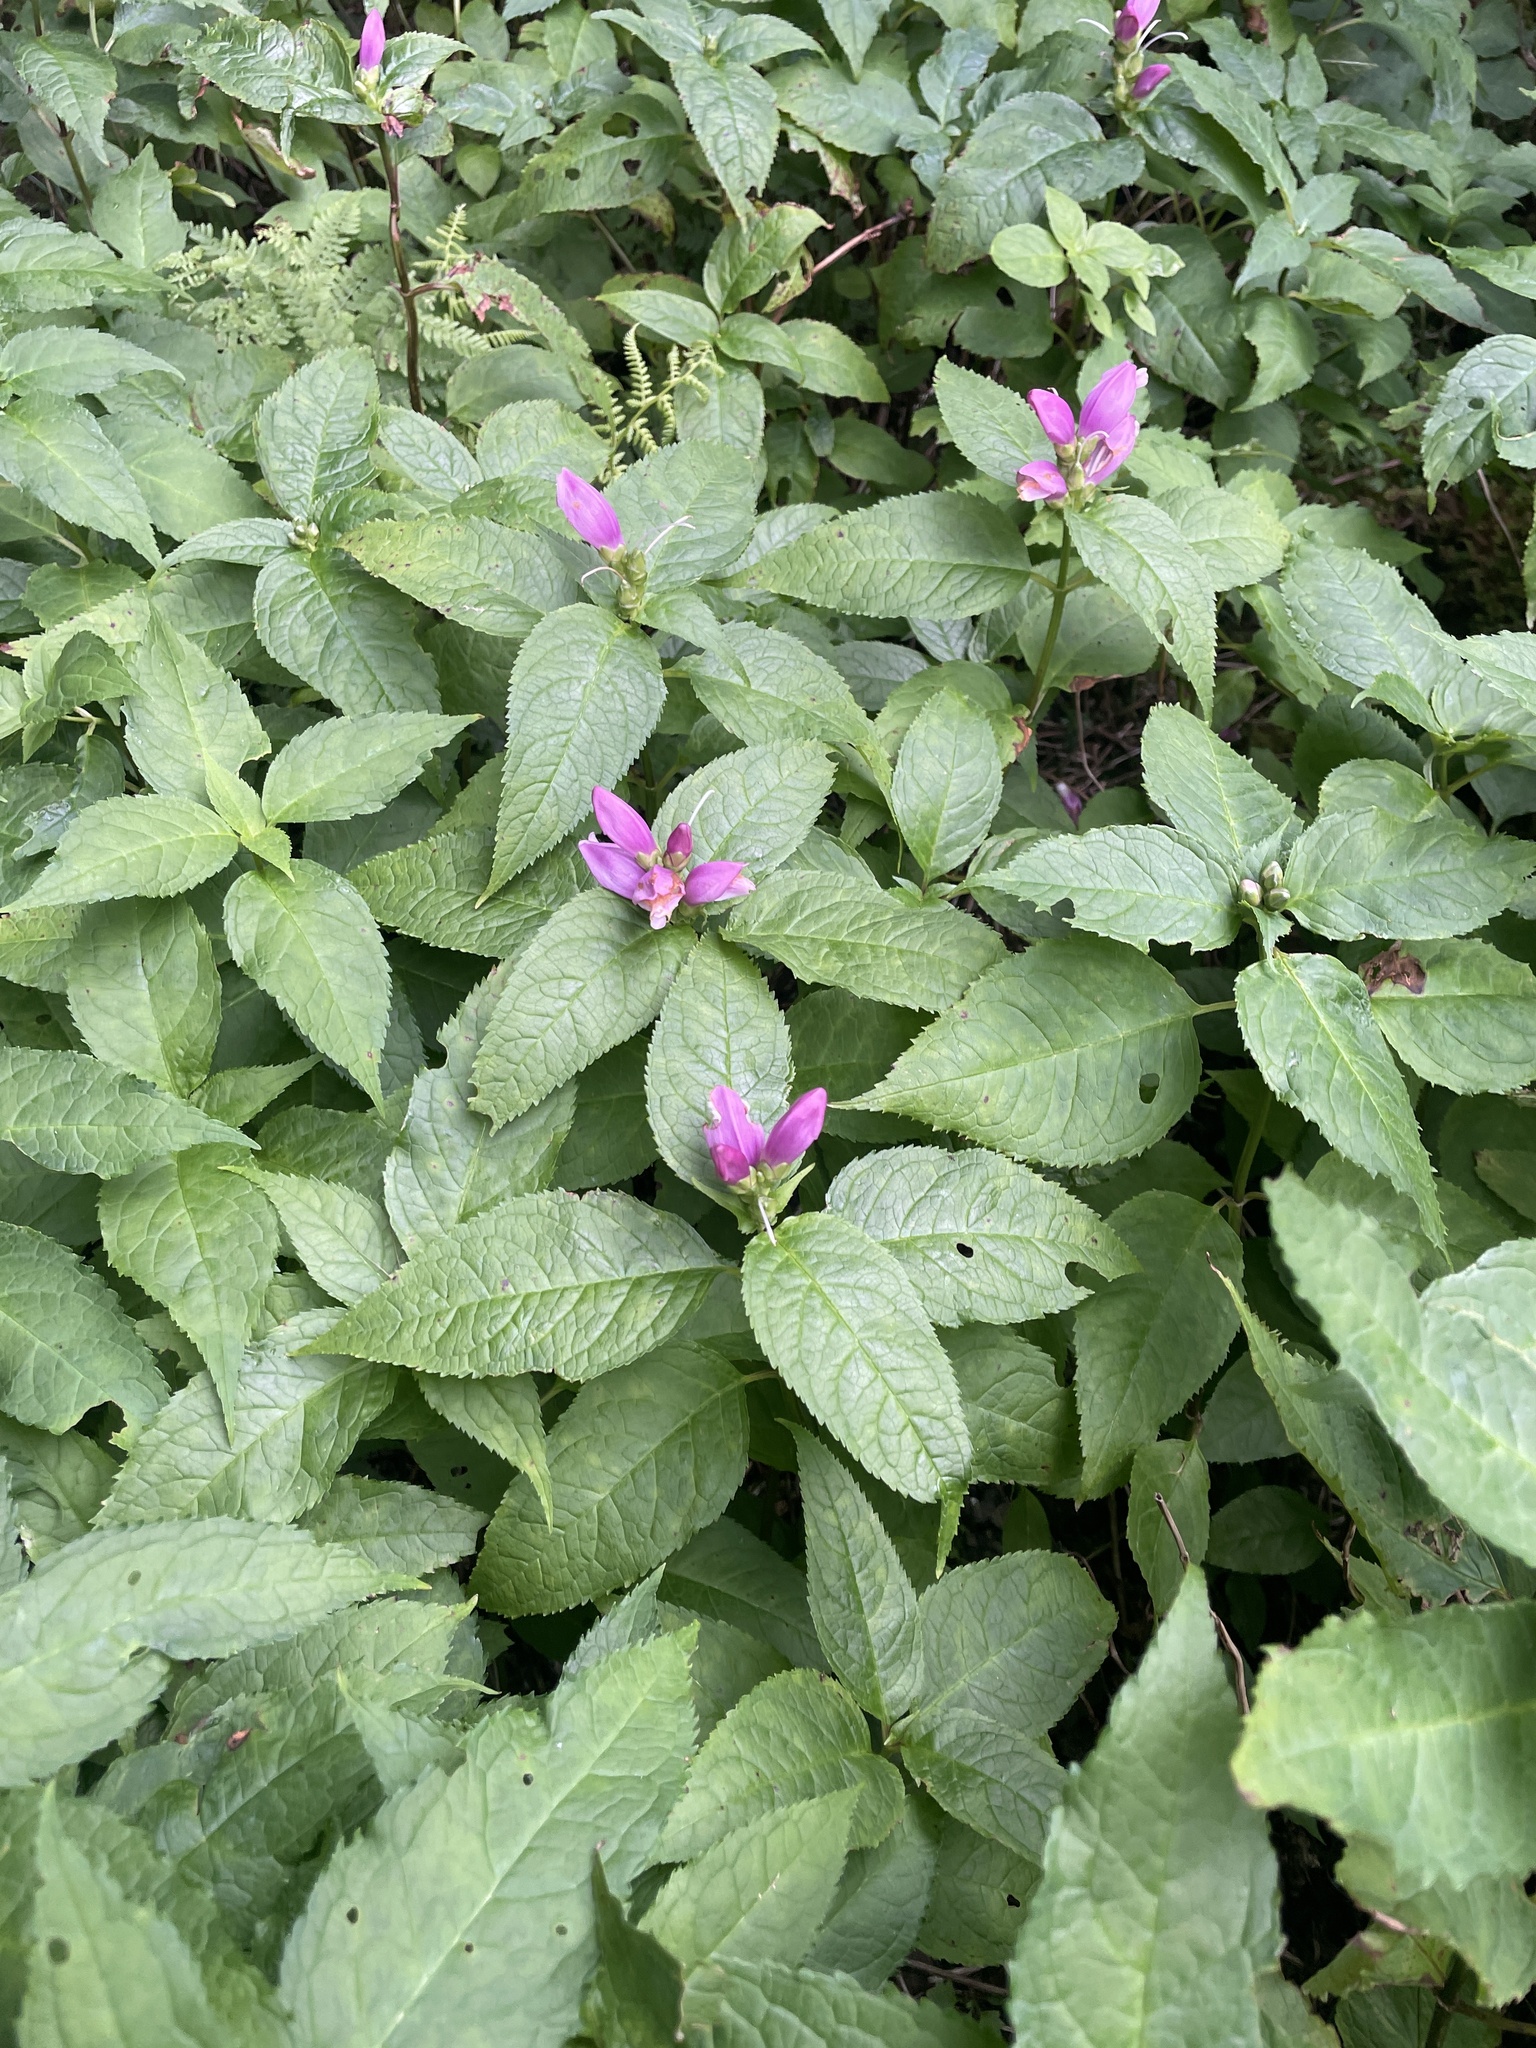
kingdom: Plantae
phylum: Tracheophyta
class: Magnoliopsida
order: Lamiales
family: Plantaginaceae
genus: Chelone
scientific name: Chelone lyonii
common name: Pink turtlehead
